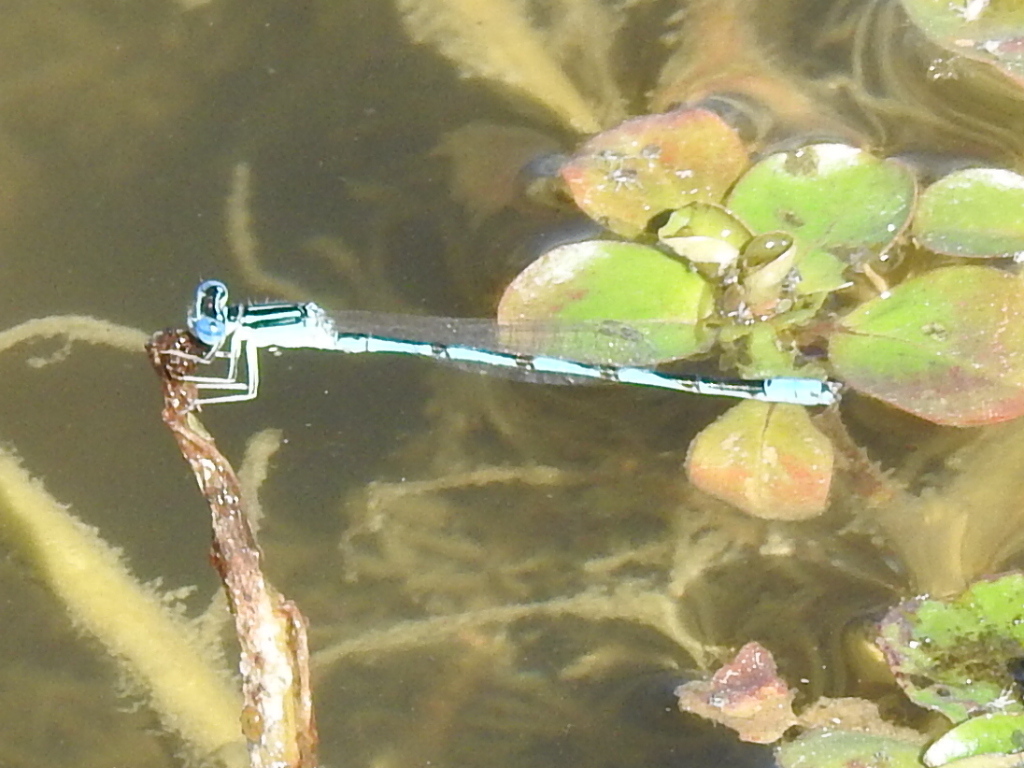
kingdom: Animalia
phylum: Arthropoda
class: Insecta
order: Odonata
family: Coenagrionidae
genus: Enallagma
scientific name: Enallagma basidens
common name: Double-striped bluet
